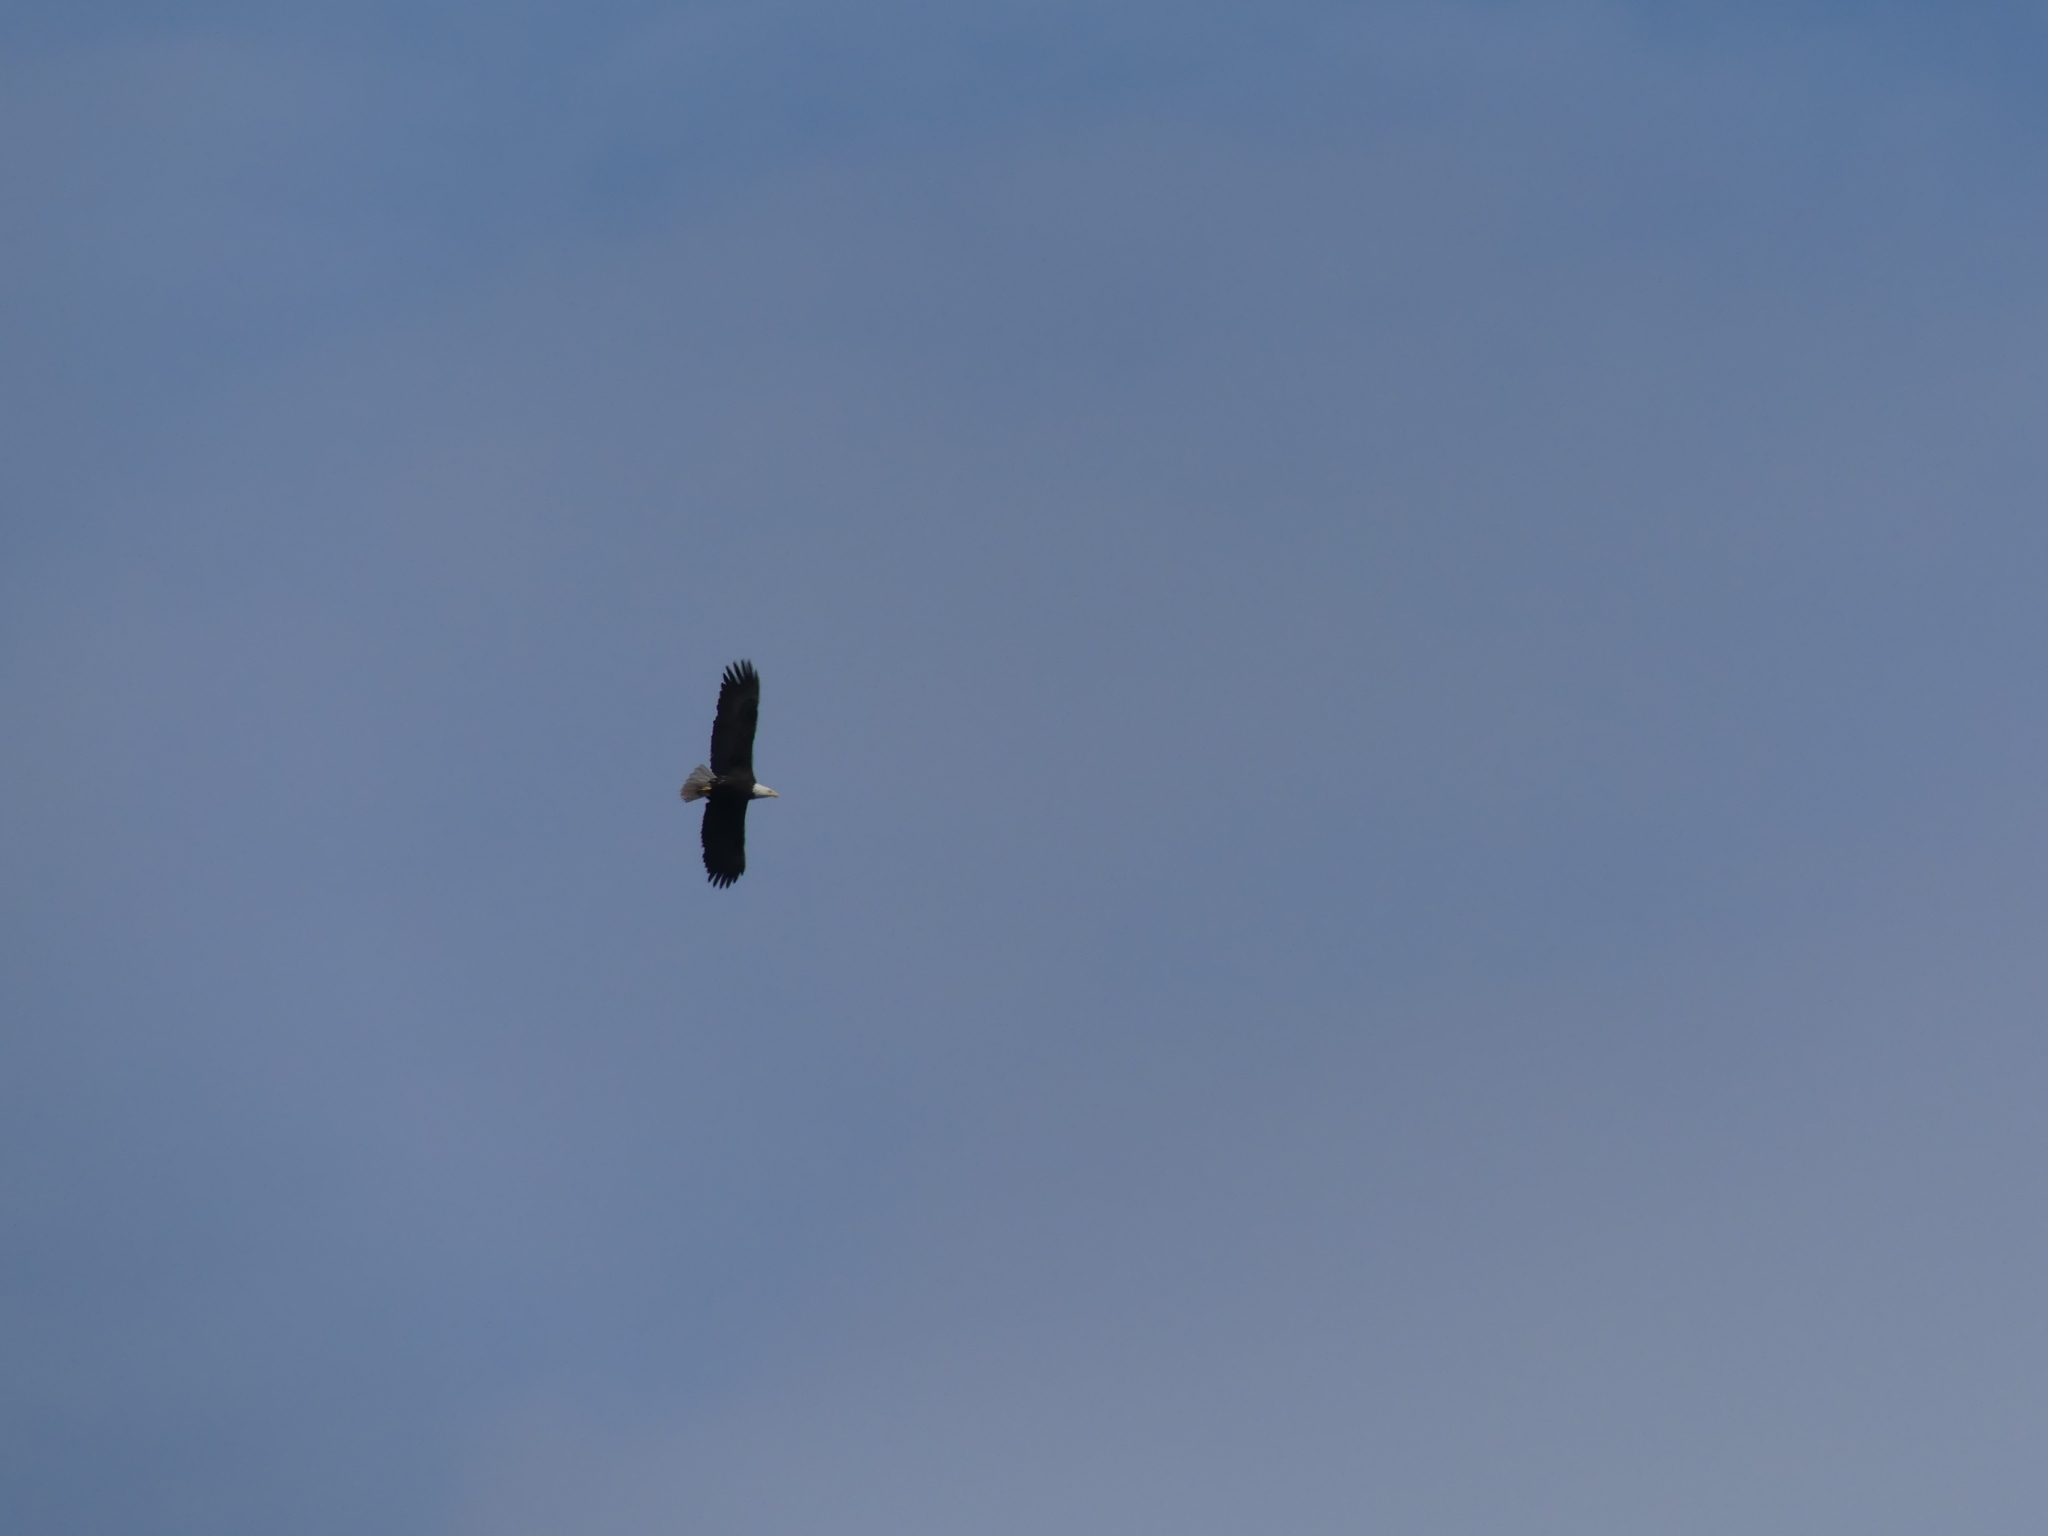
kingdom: Animalia
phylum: Chordata
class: Aves
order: Accipitriformes
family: Accipitridae
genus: Haliaeetus
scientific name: Haliaeetus leucocephalus
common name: Bald eagle
